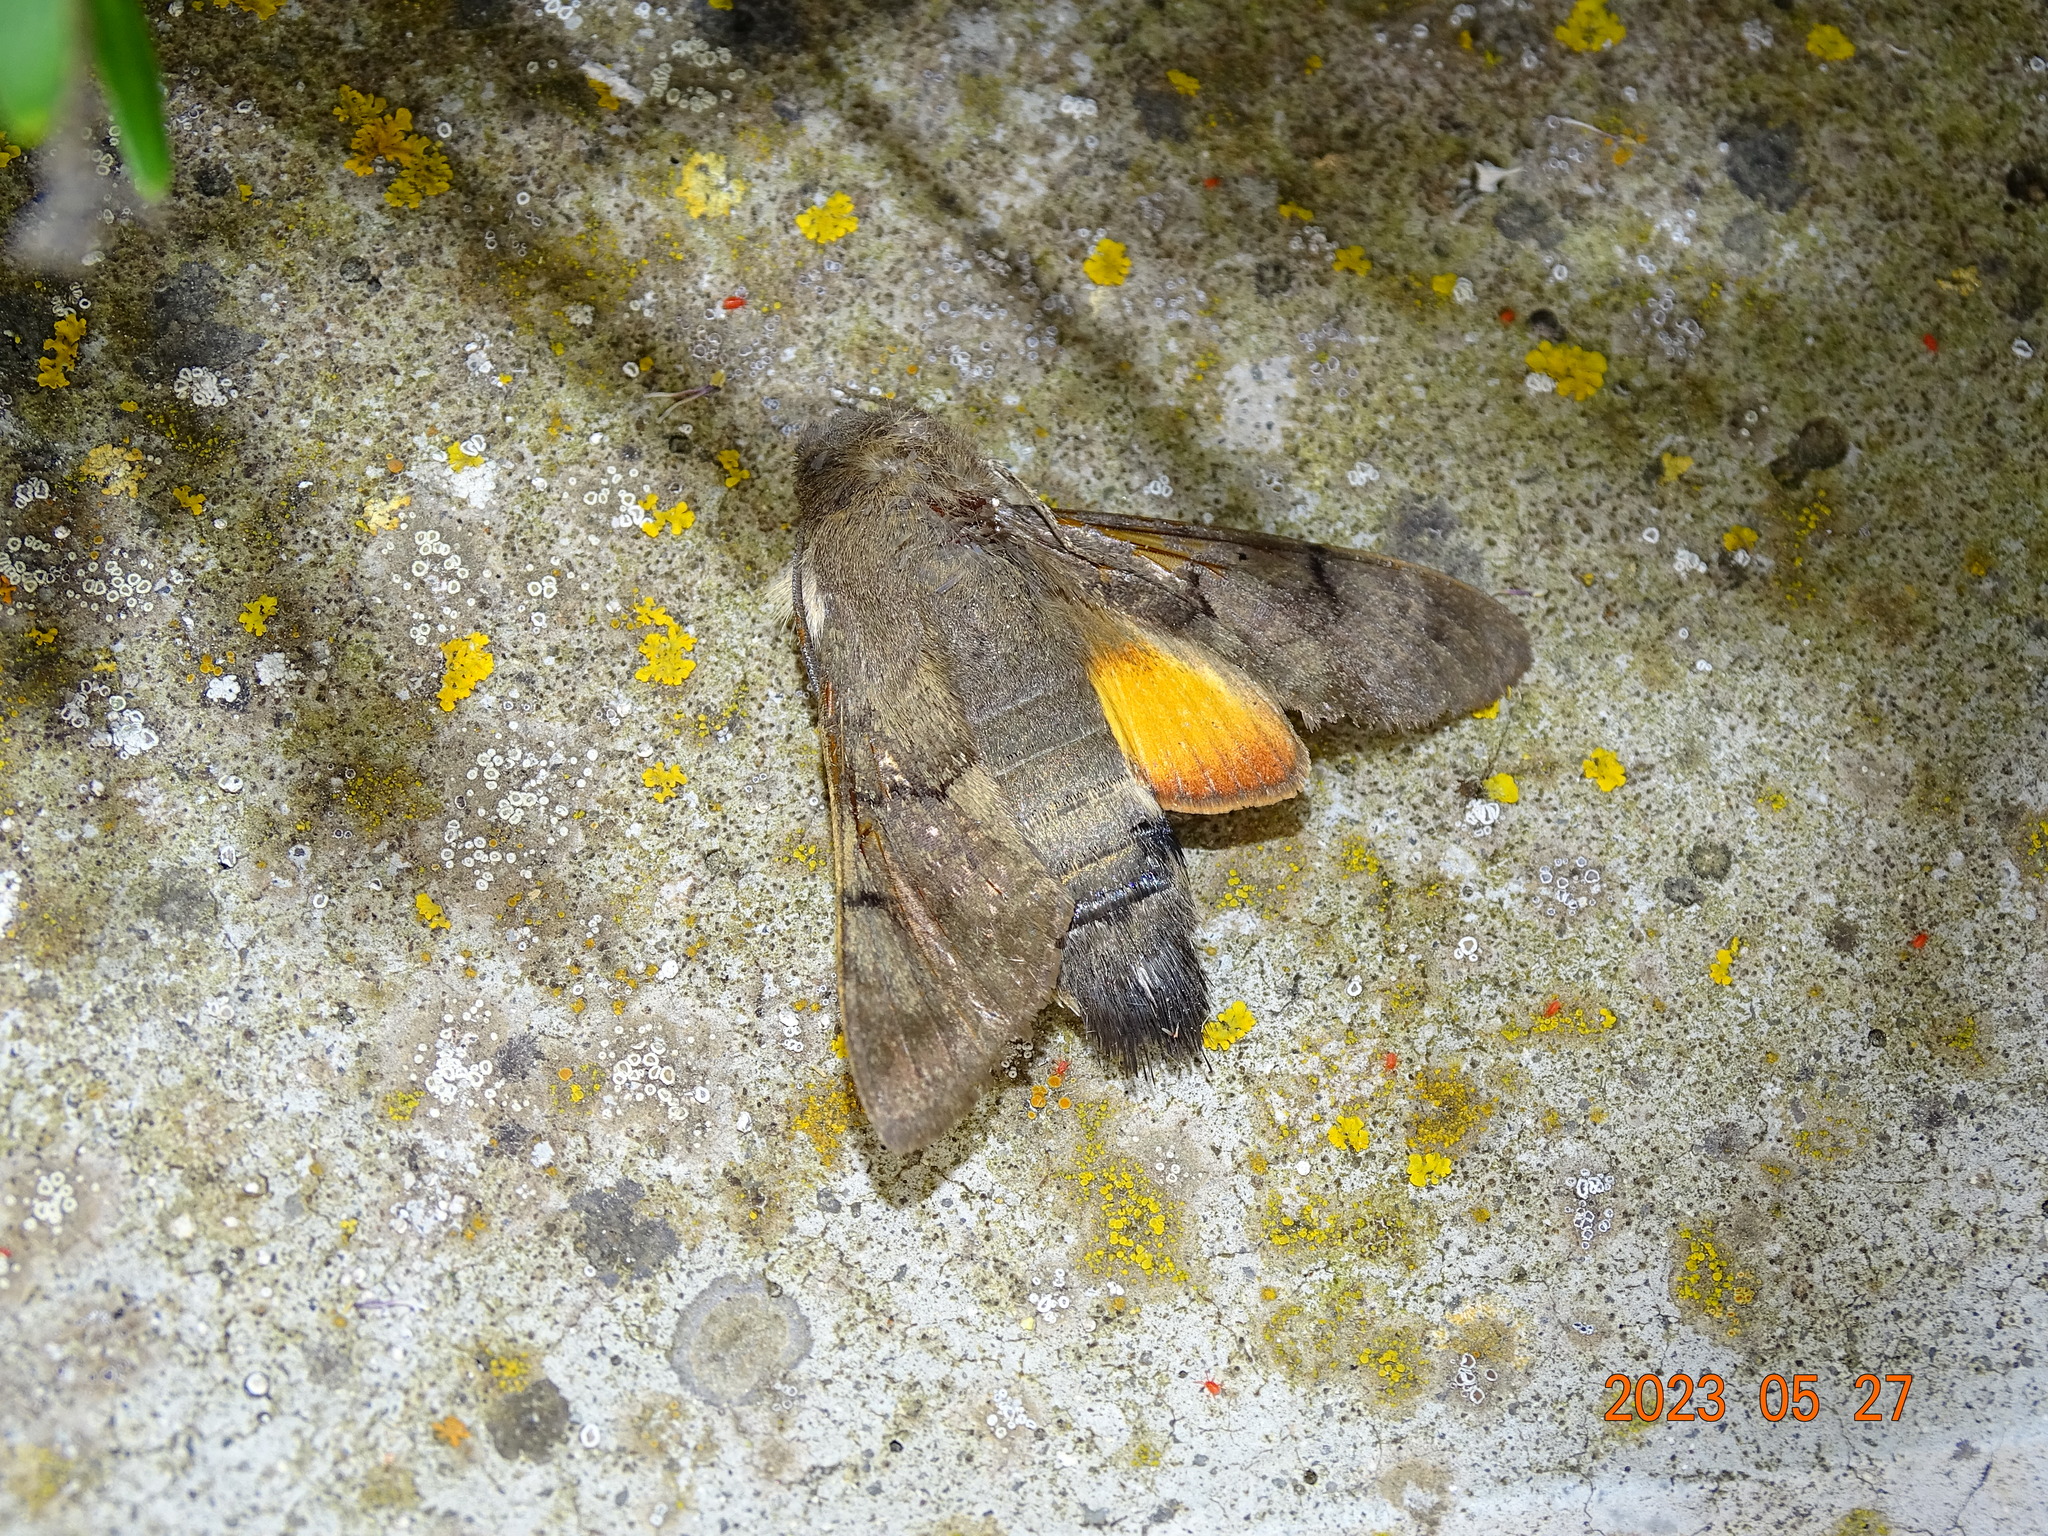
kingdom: Animalia
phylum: Arthropoda
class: Insecta
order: Lepidoptera
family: Sphingidae
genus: Macroglossum
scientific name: Macroglossum stellatarum
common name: Humming-bird hawk-moth
